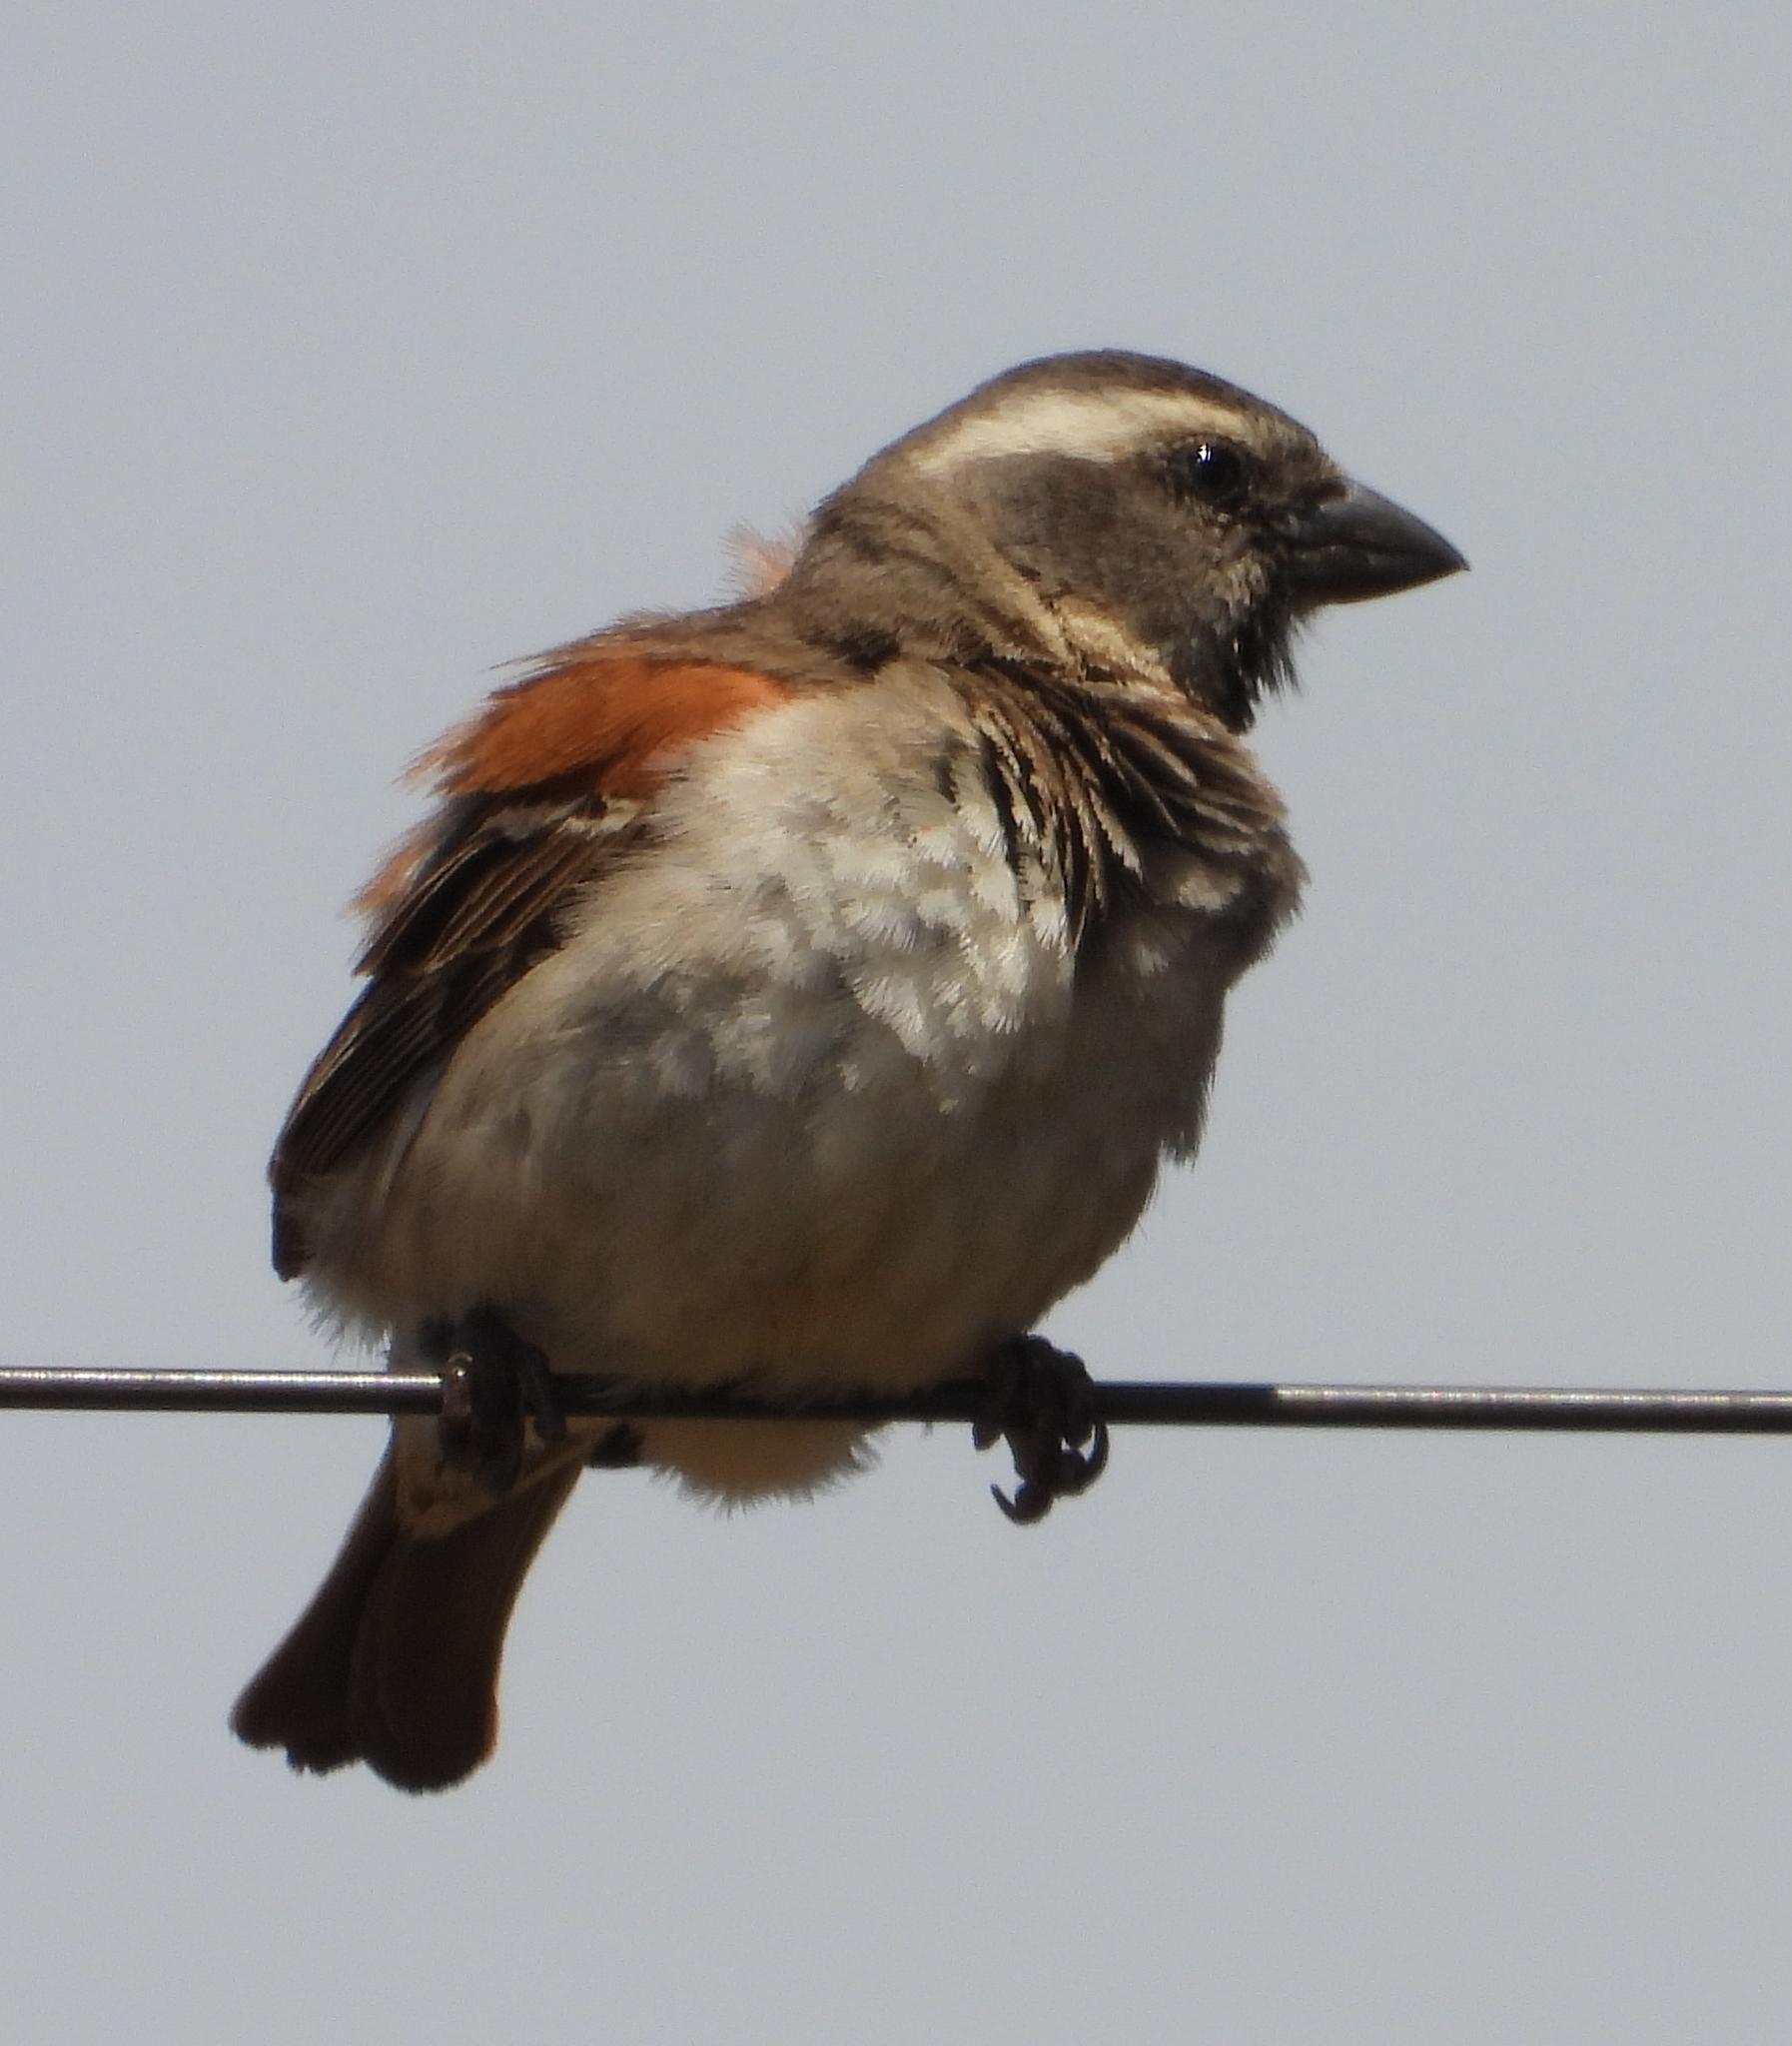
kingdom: Animalia
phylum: Chordata
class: Aves
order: Passeriformes
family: Passeridae
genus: Passer
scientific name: Passer melanurus
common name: Cape sparrow
